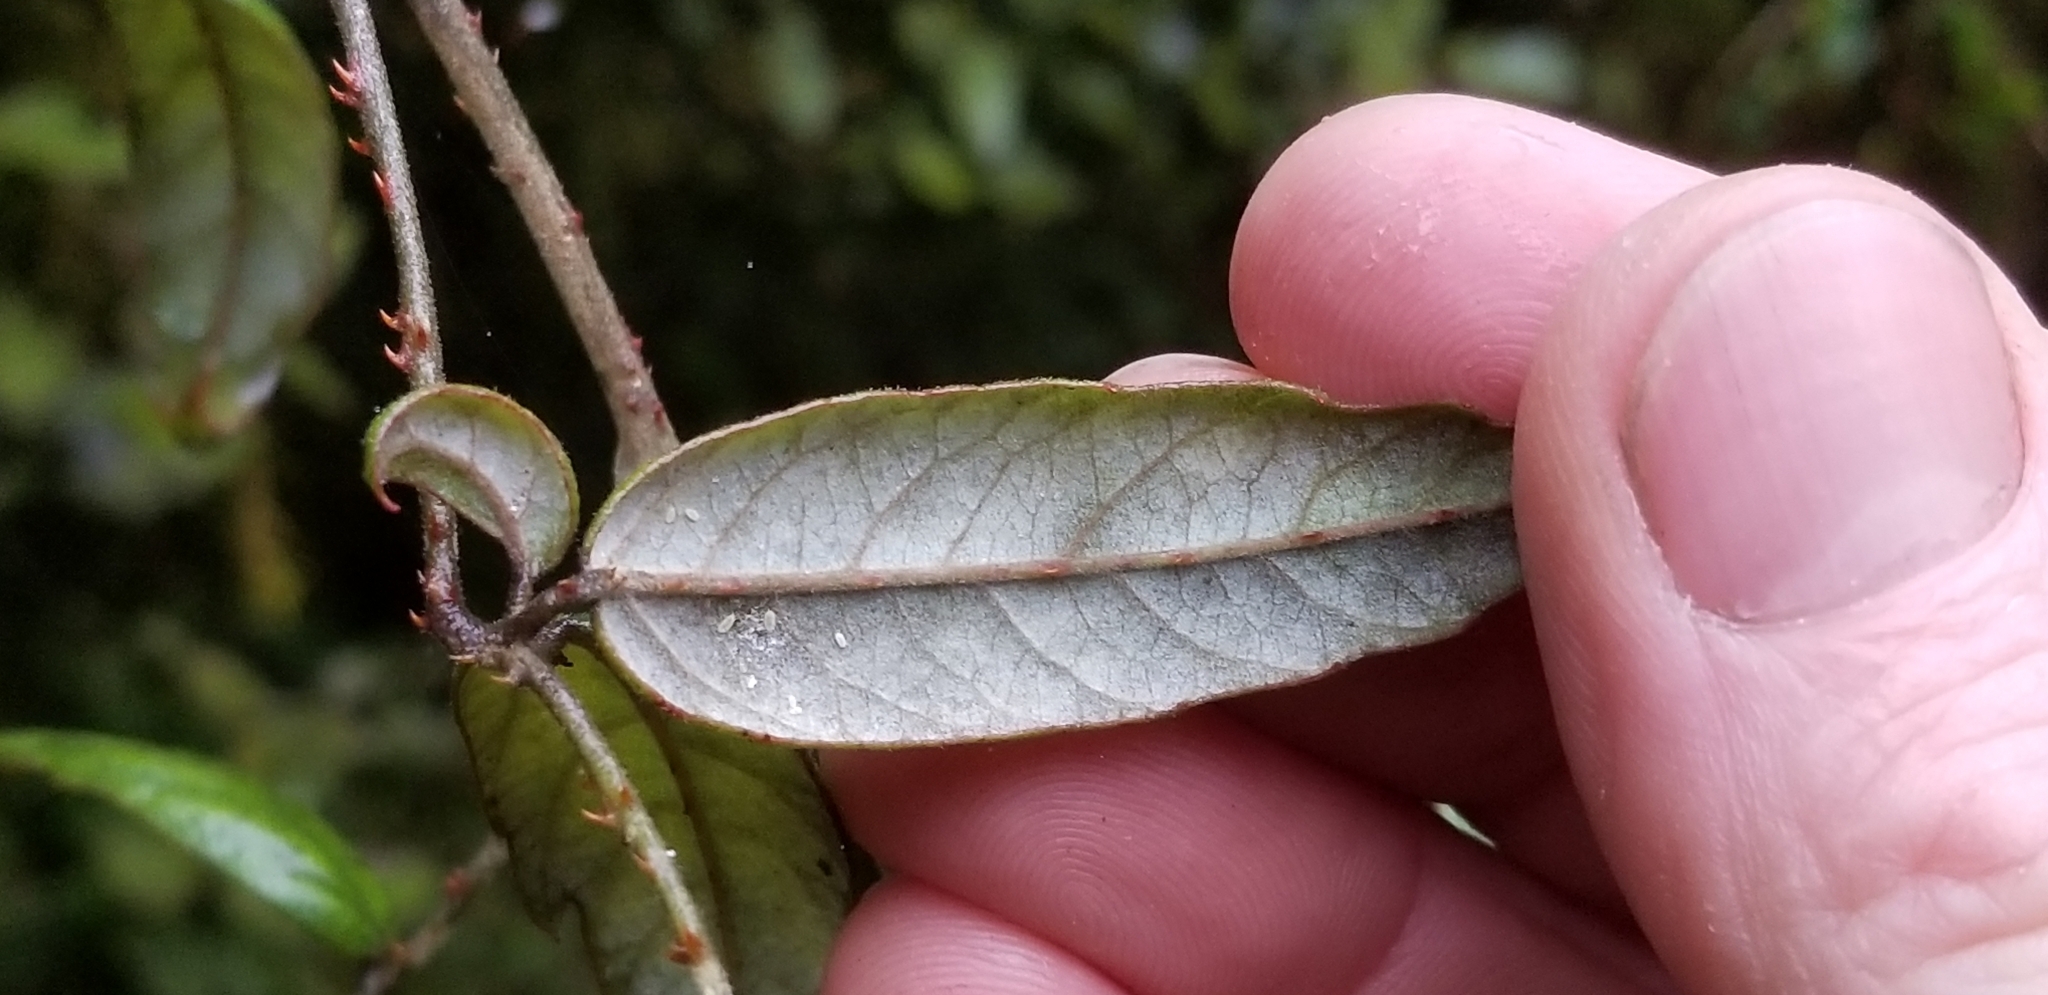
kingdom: Plantae
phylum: Tracheophyta
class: Magnoliopsida
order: Rosales
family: Rosaceae
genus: Rubus
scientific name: Rubus schmidelioides
